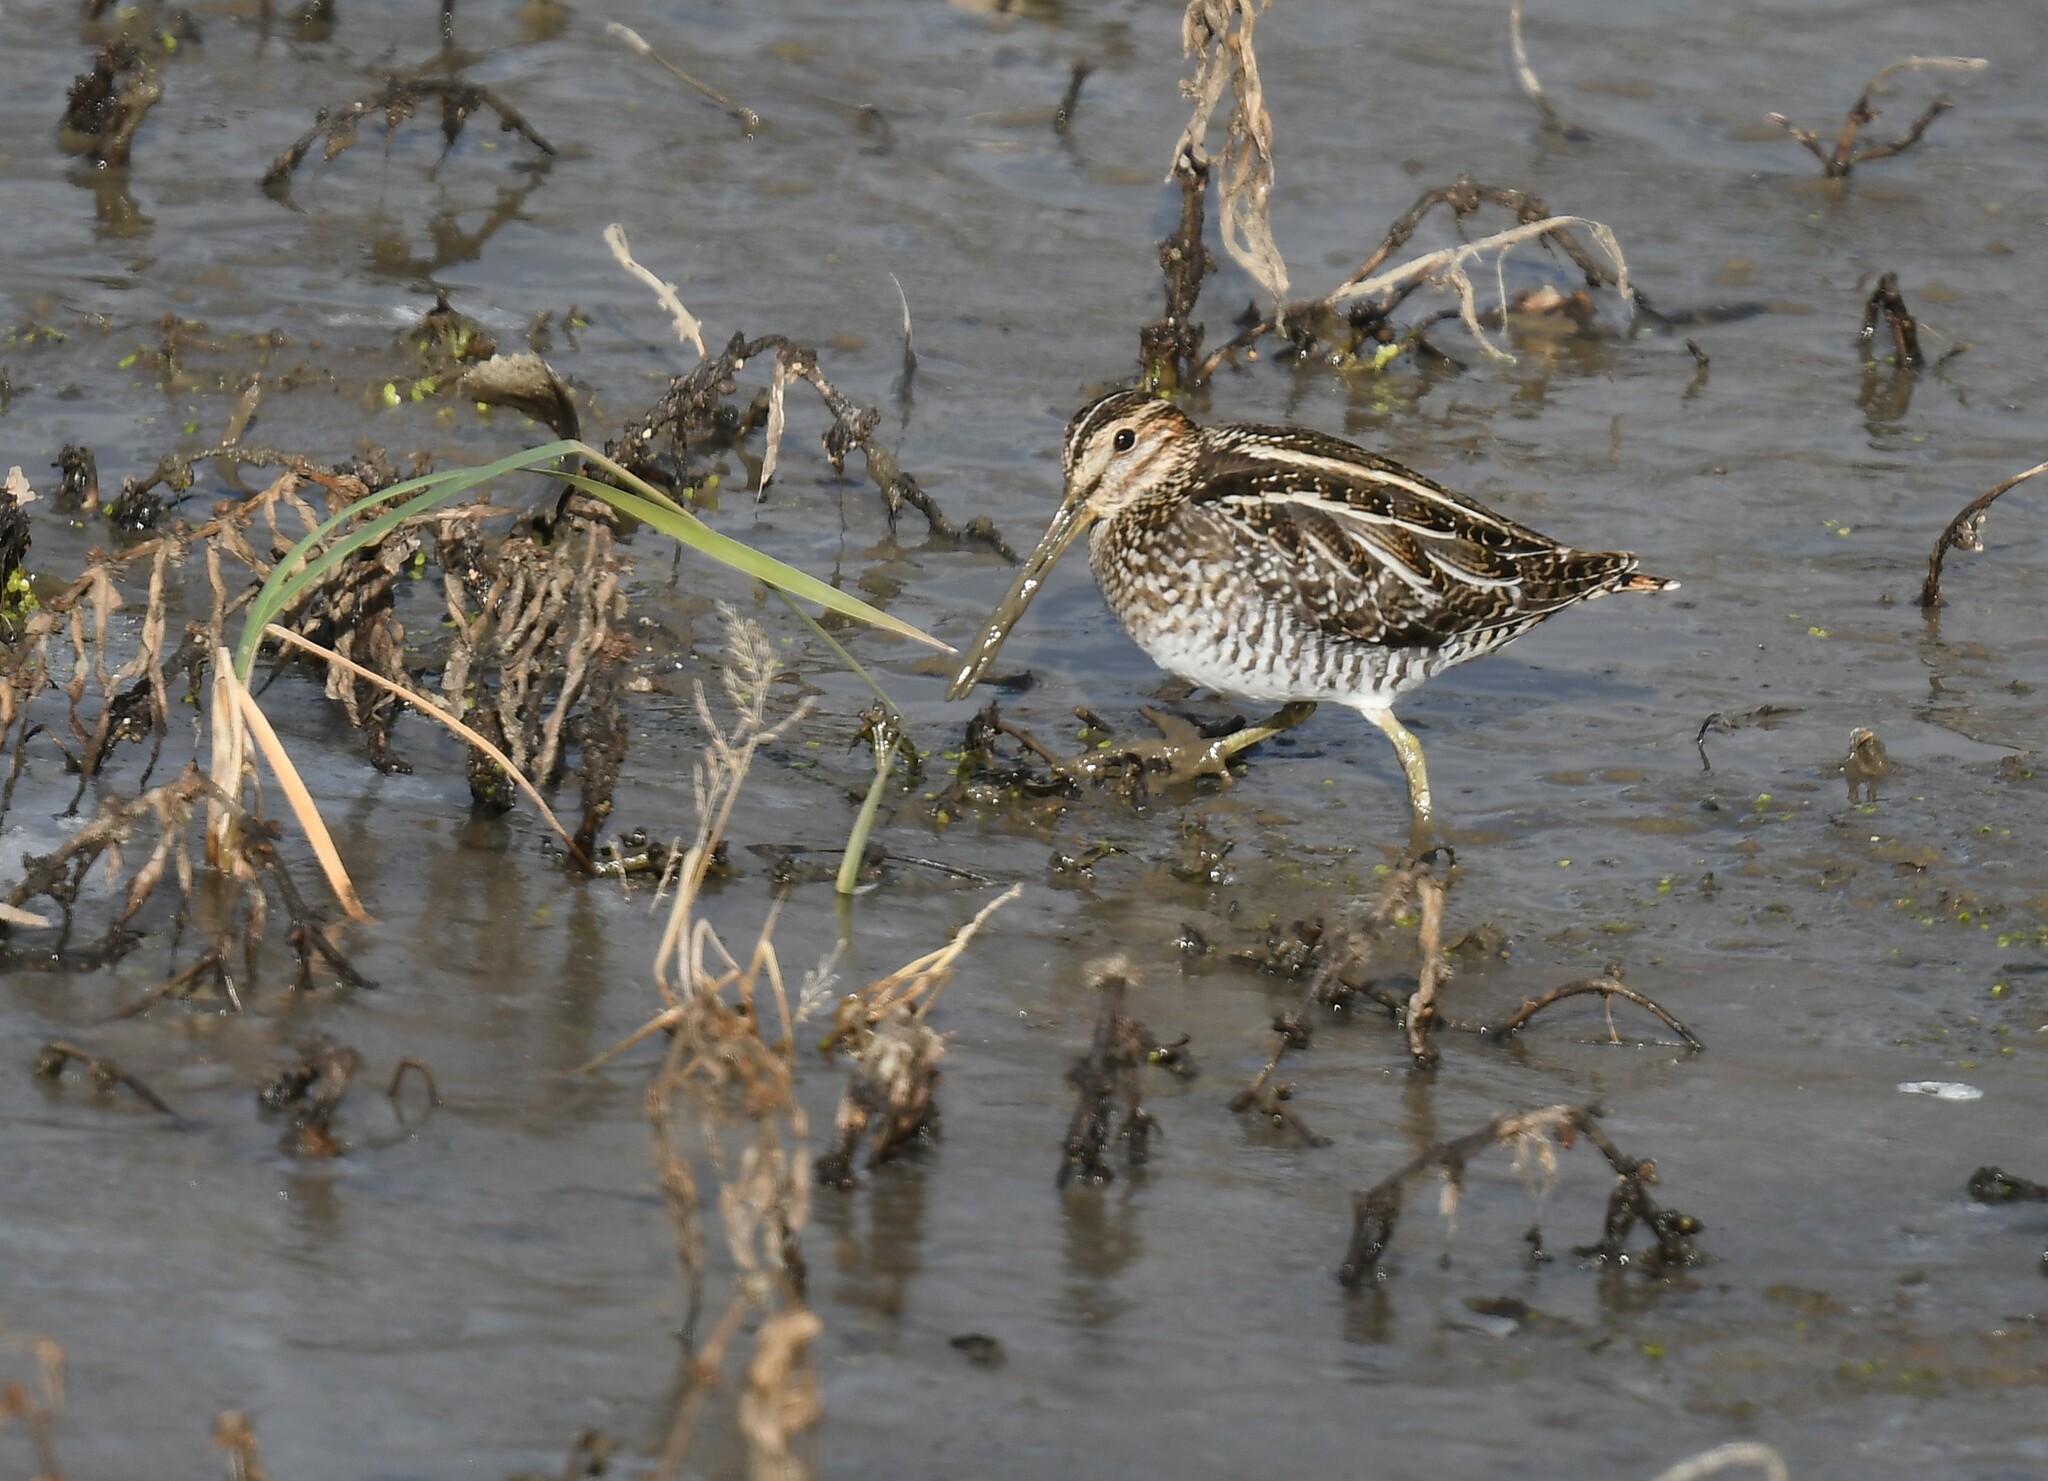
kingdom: Animalia
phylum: Chordata
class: Aves
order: Charadriiformes
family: Scolopacidae
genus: Gallinago
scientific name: Gallinago delicata
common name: Wilson's snipe
